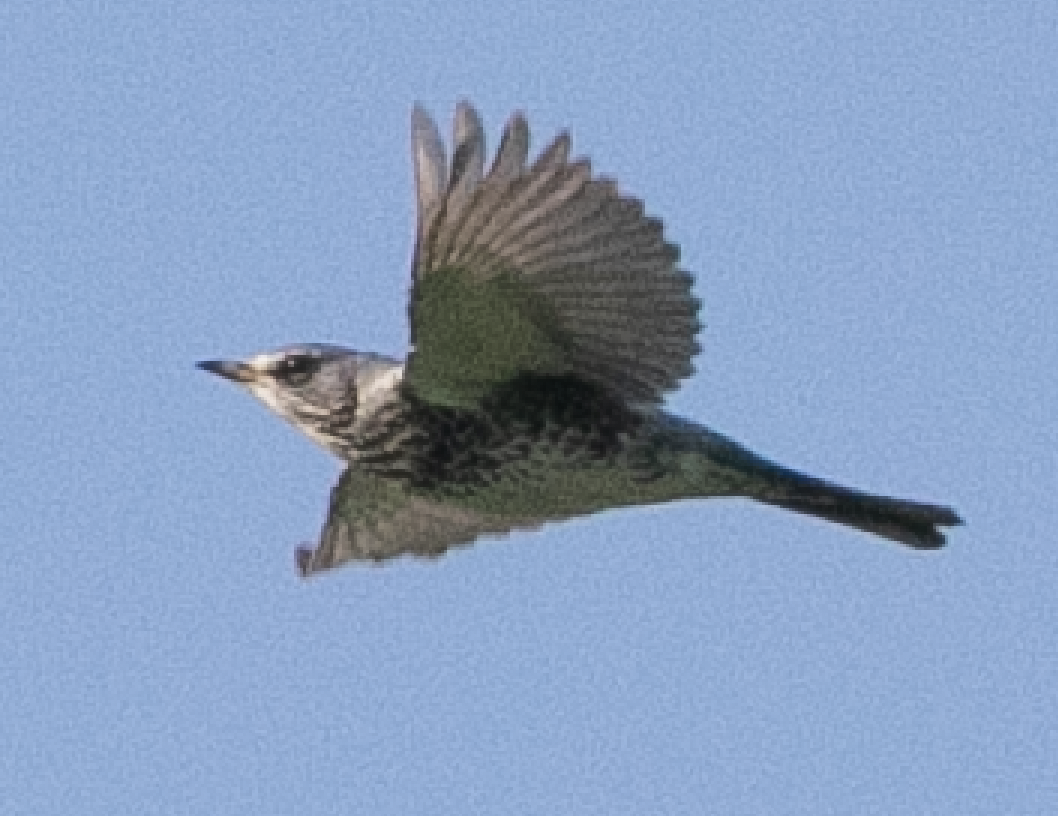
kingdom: Animalia
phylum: Chordata
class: Aves
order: Passeriformes
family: Turdidae
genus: Turdus
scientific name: Turdus pilaris
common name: Fieldfare
